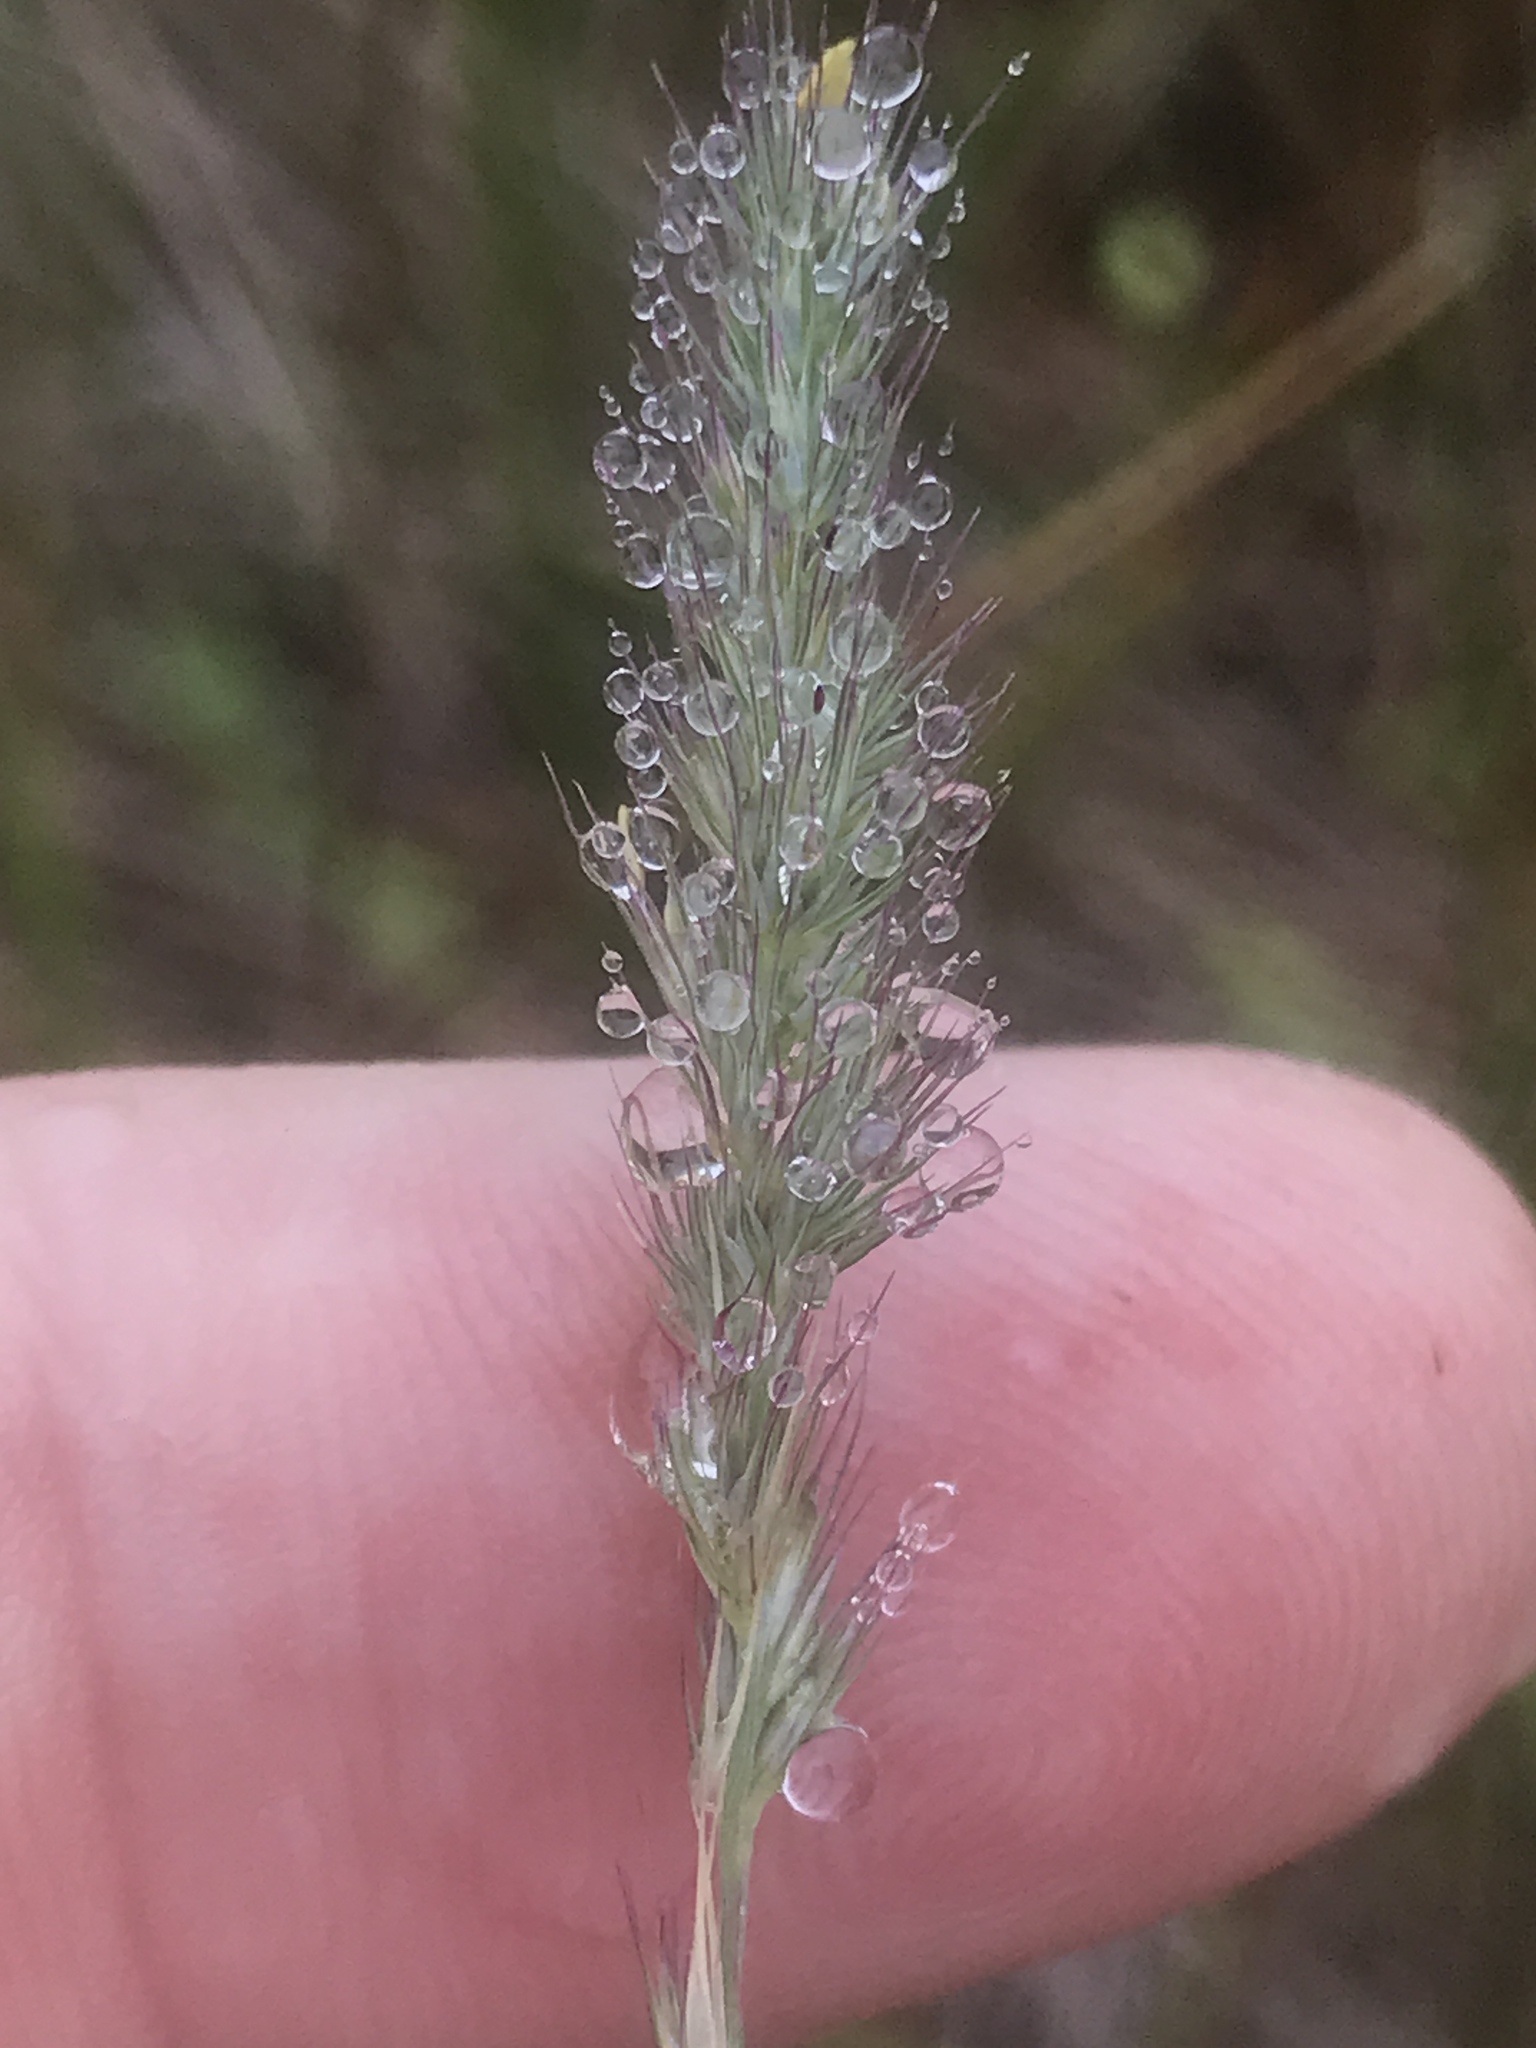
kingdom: Plantae
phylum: Tracheophyta
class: Liliopsida
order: Poales
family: Poaceae
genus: Muhlenbergia
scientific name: Muhlenbergia glomerata
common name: Bog muhly
